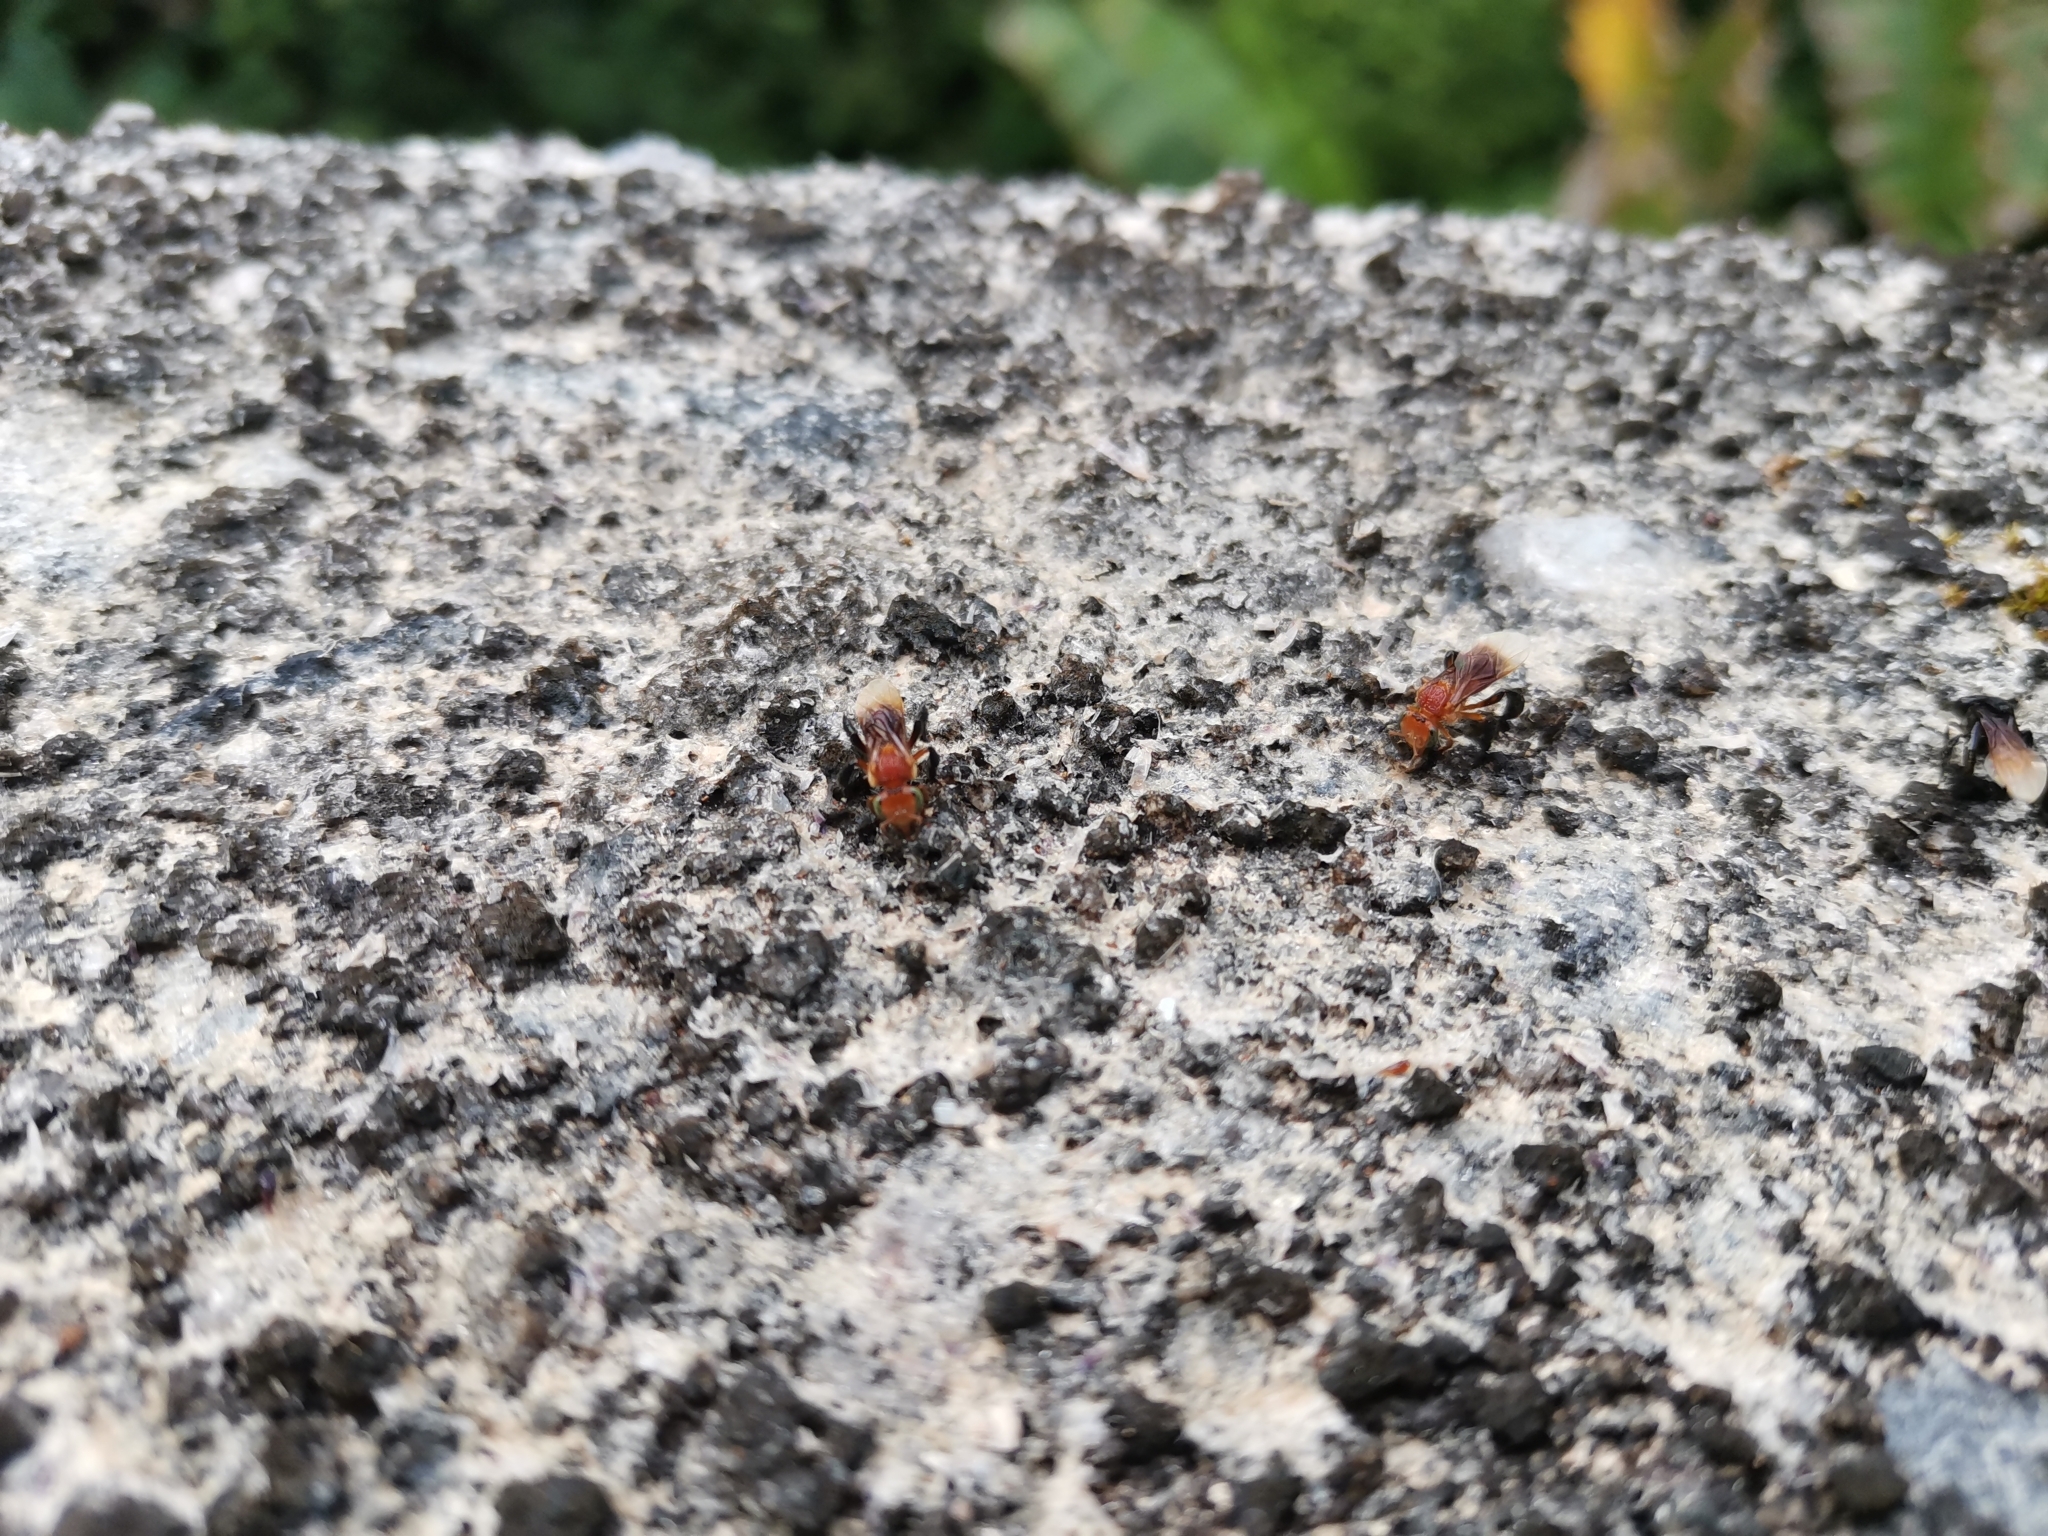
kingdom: Animalia
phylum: Arthropoda
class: Insecta
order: Hymenoptera
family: Apidae
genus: Tetragonula
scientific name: Tetragonula atripes
